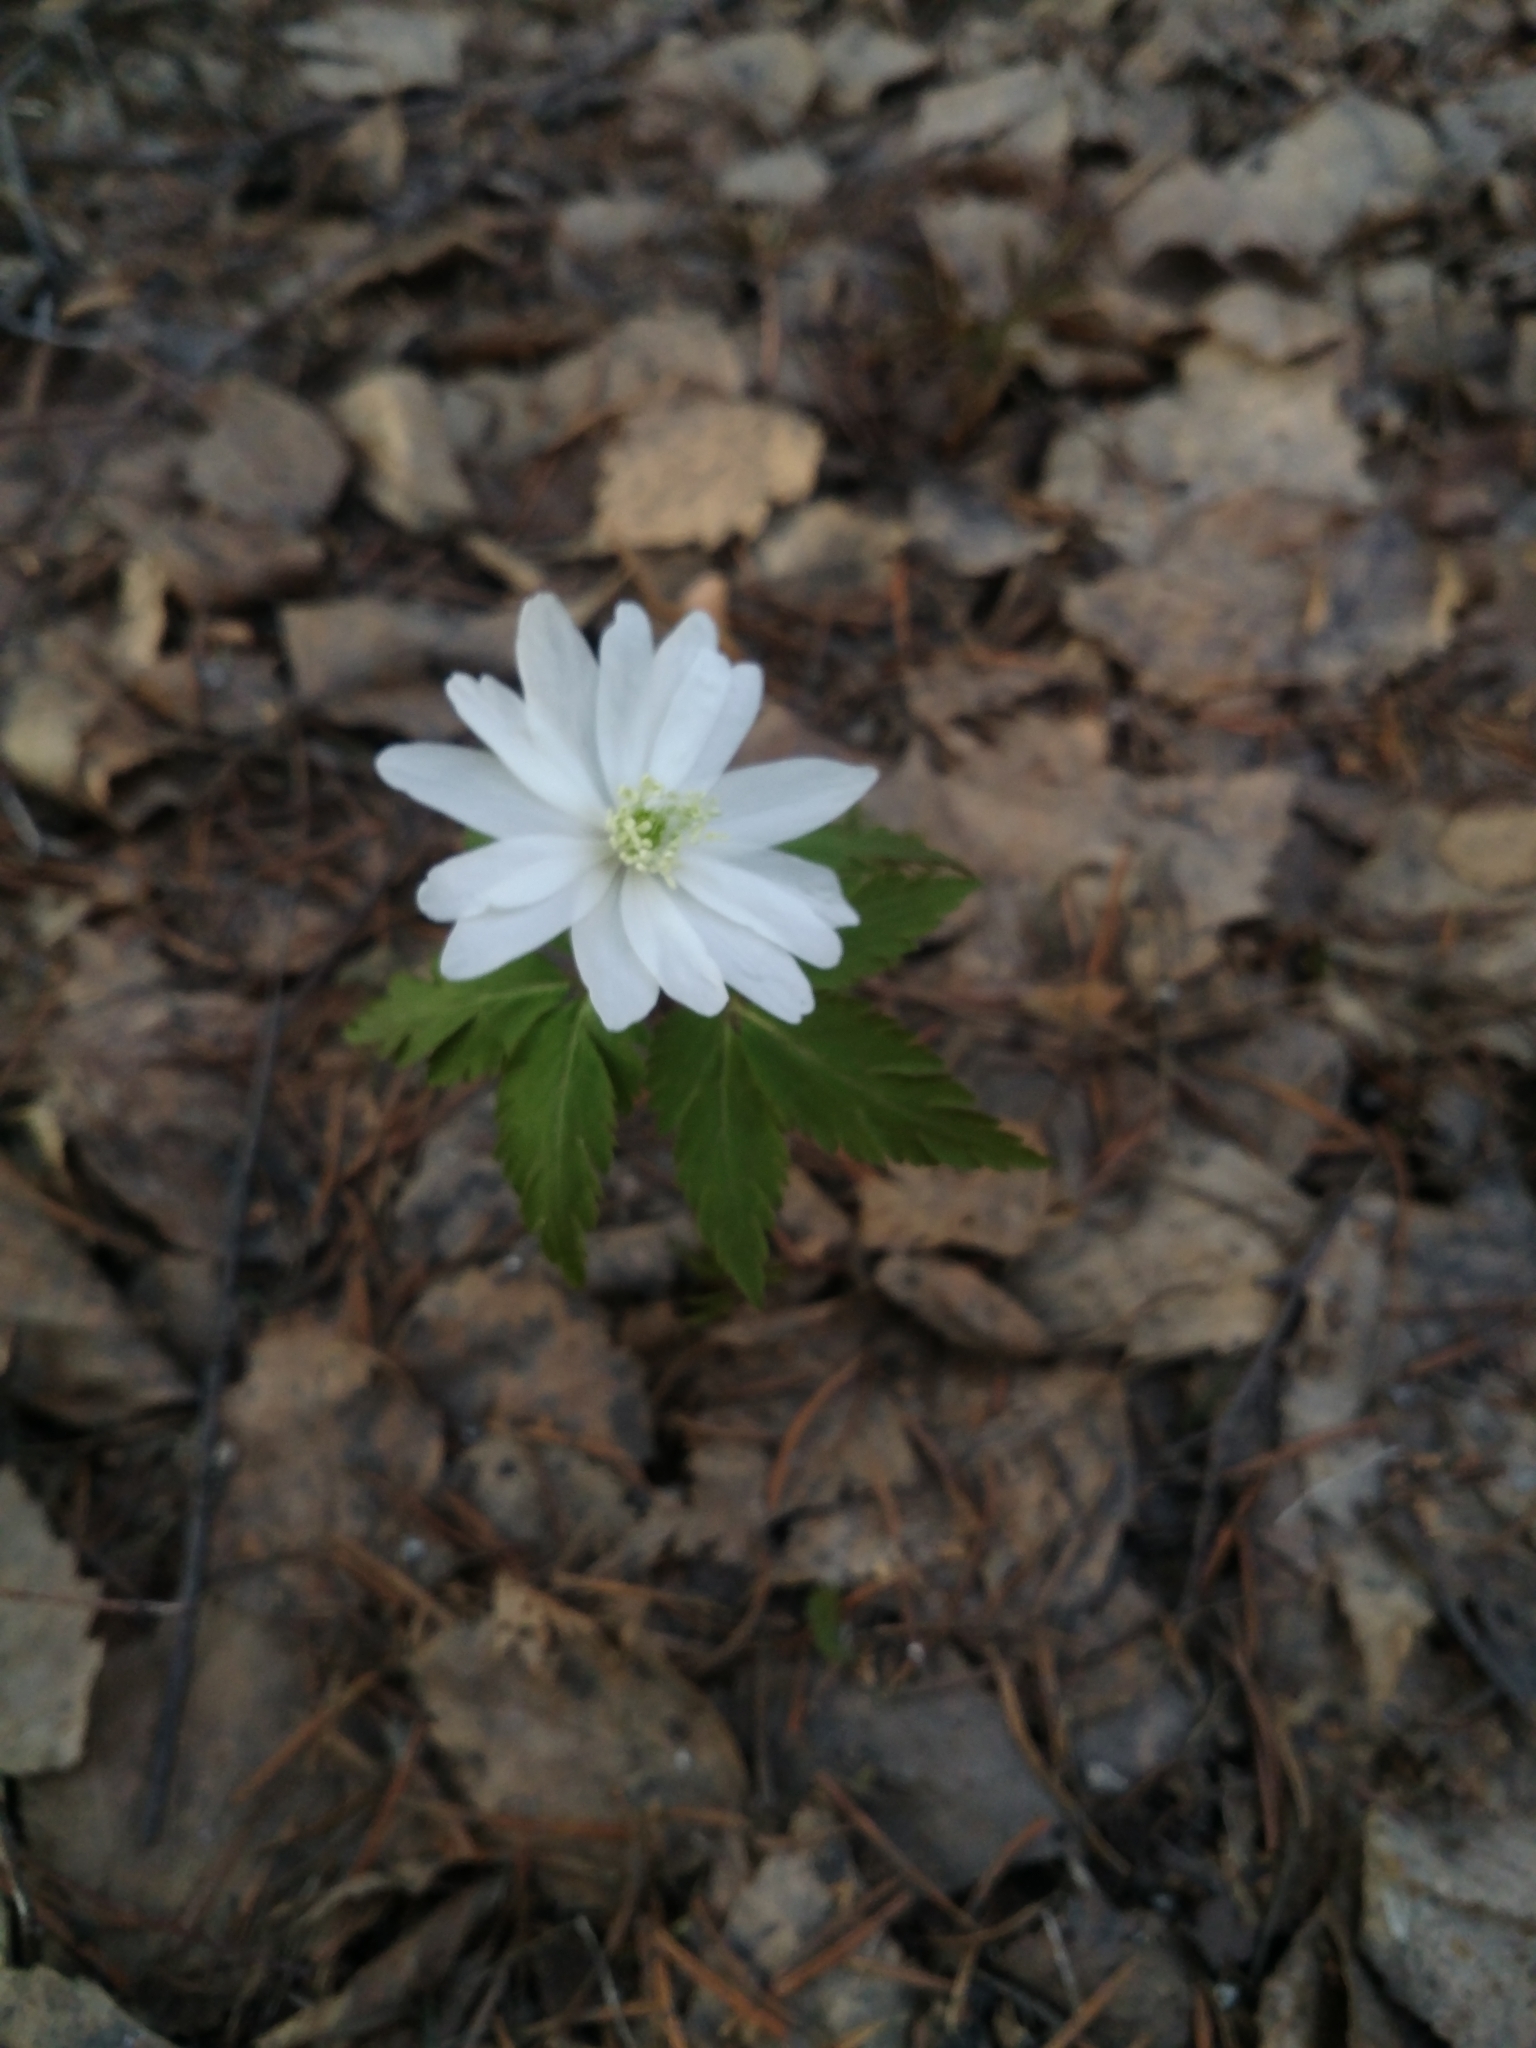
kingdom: Plantae
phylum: Tracheophyta
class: Magnoliopsida
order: Ranunculales
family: Ranunculaceae
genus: Anemone
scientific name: Anemone altaica
